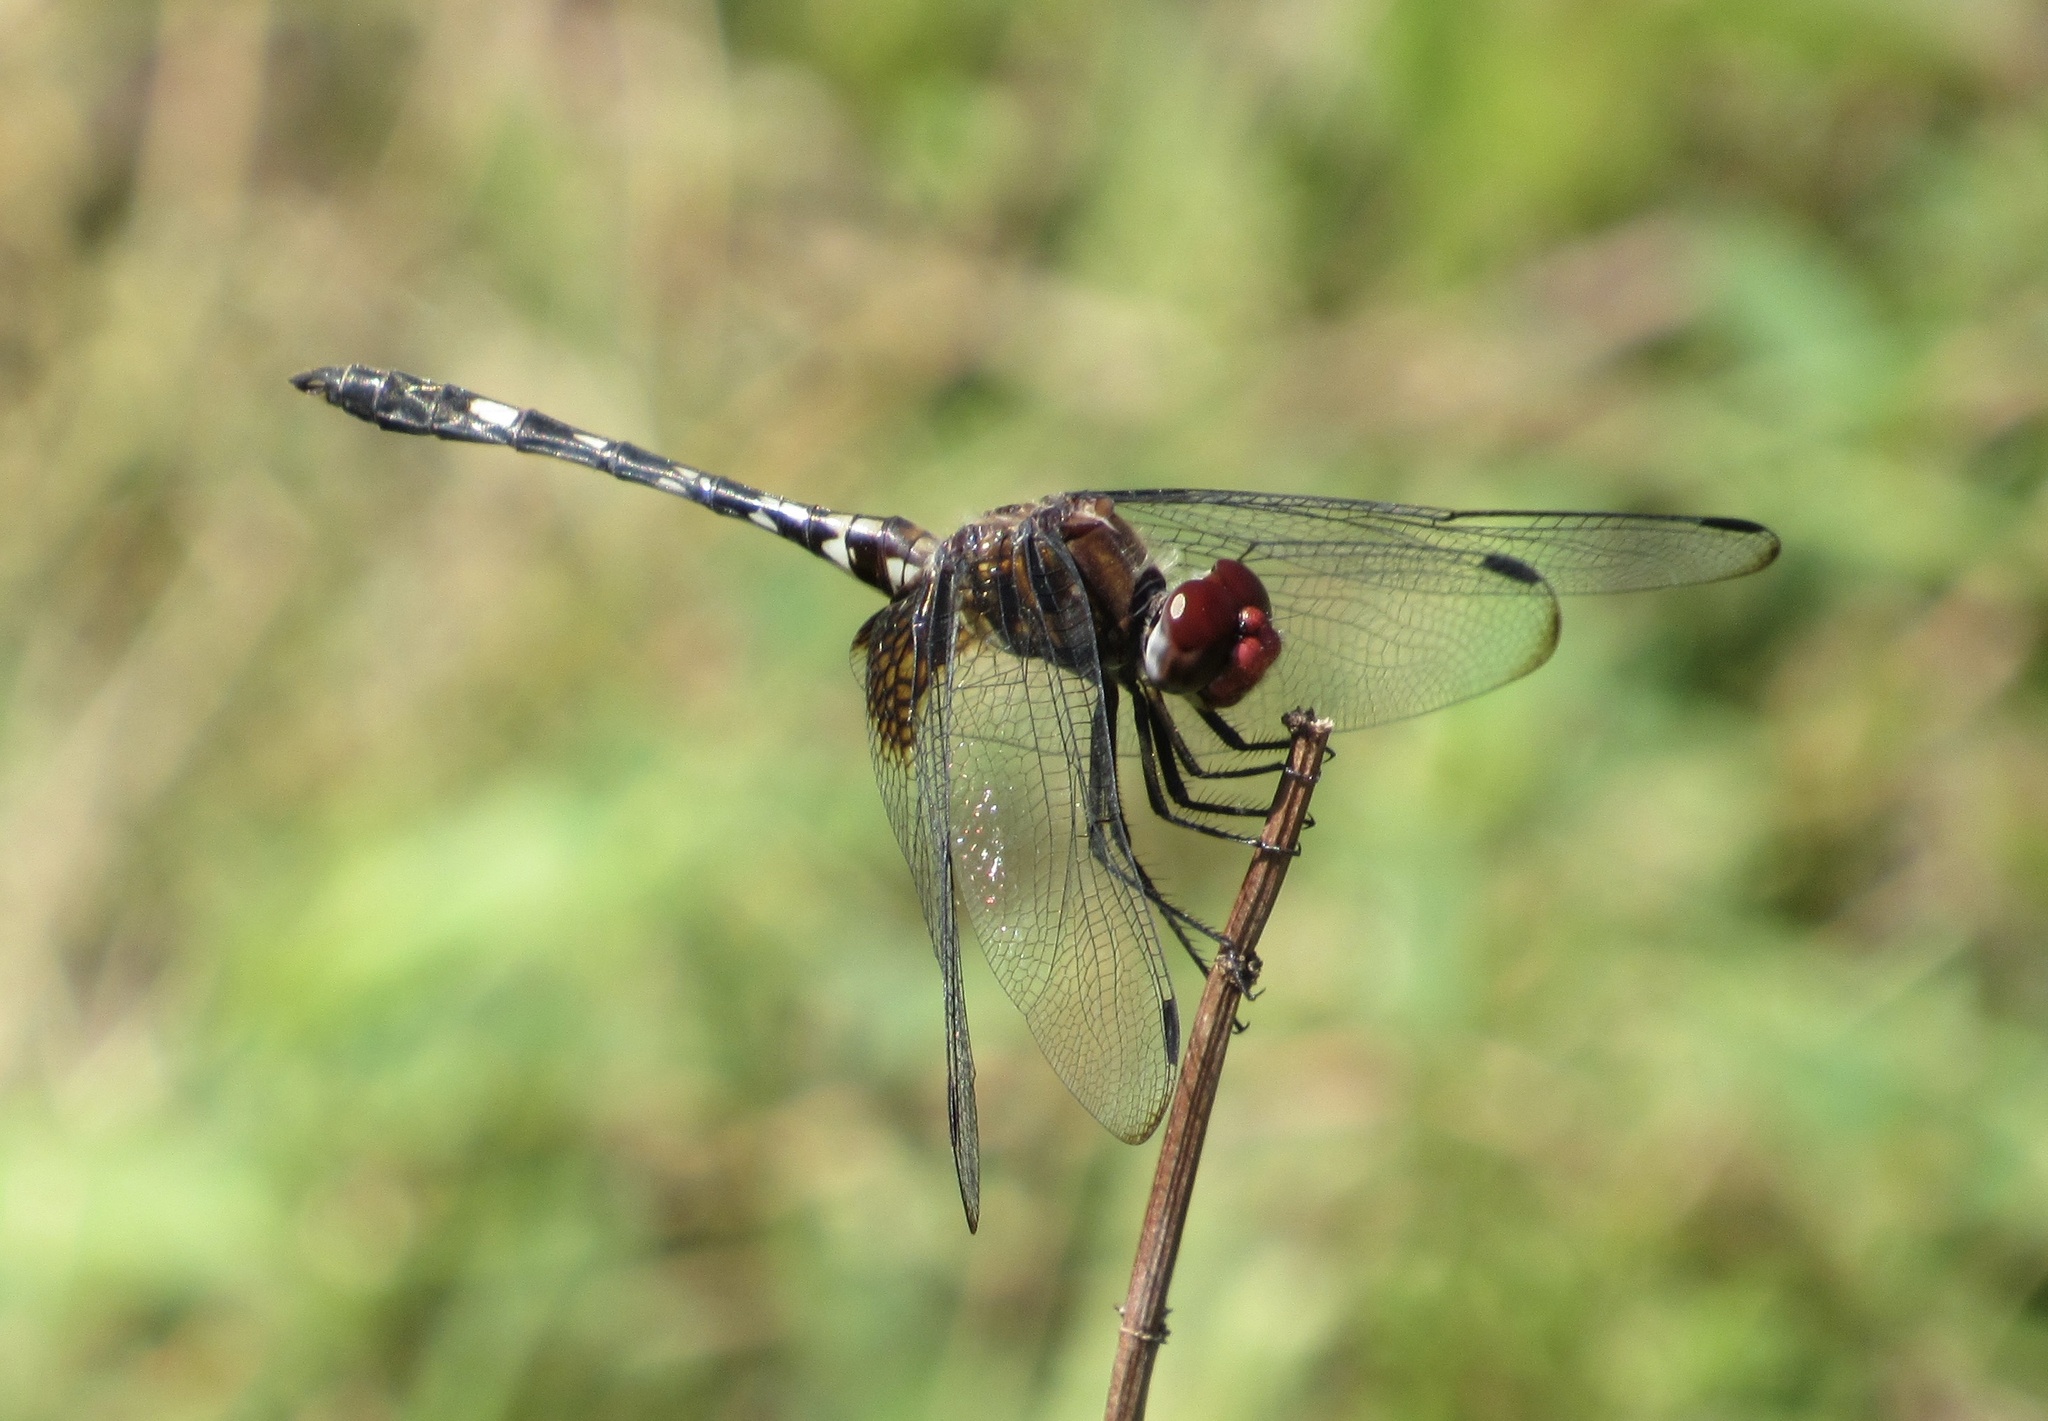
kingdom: Animalia
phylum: Arthropoda
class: Insecta
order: Odonata
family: Libellulidae
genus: Dythemis
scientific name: Dythemis fugax
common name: Checkered setwing
